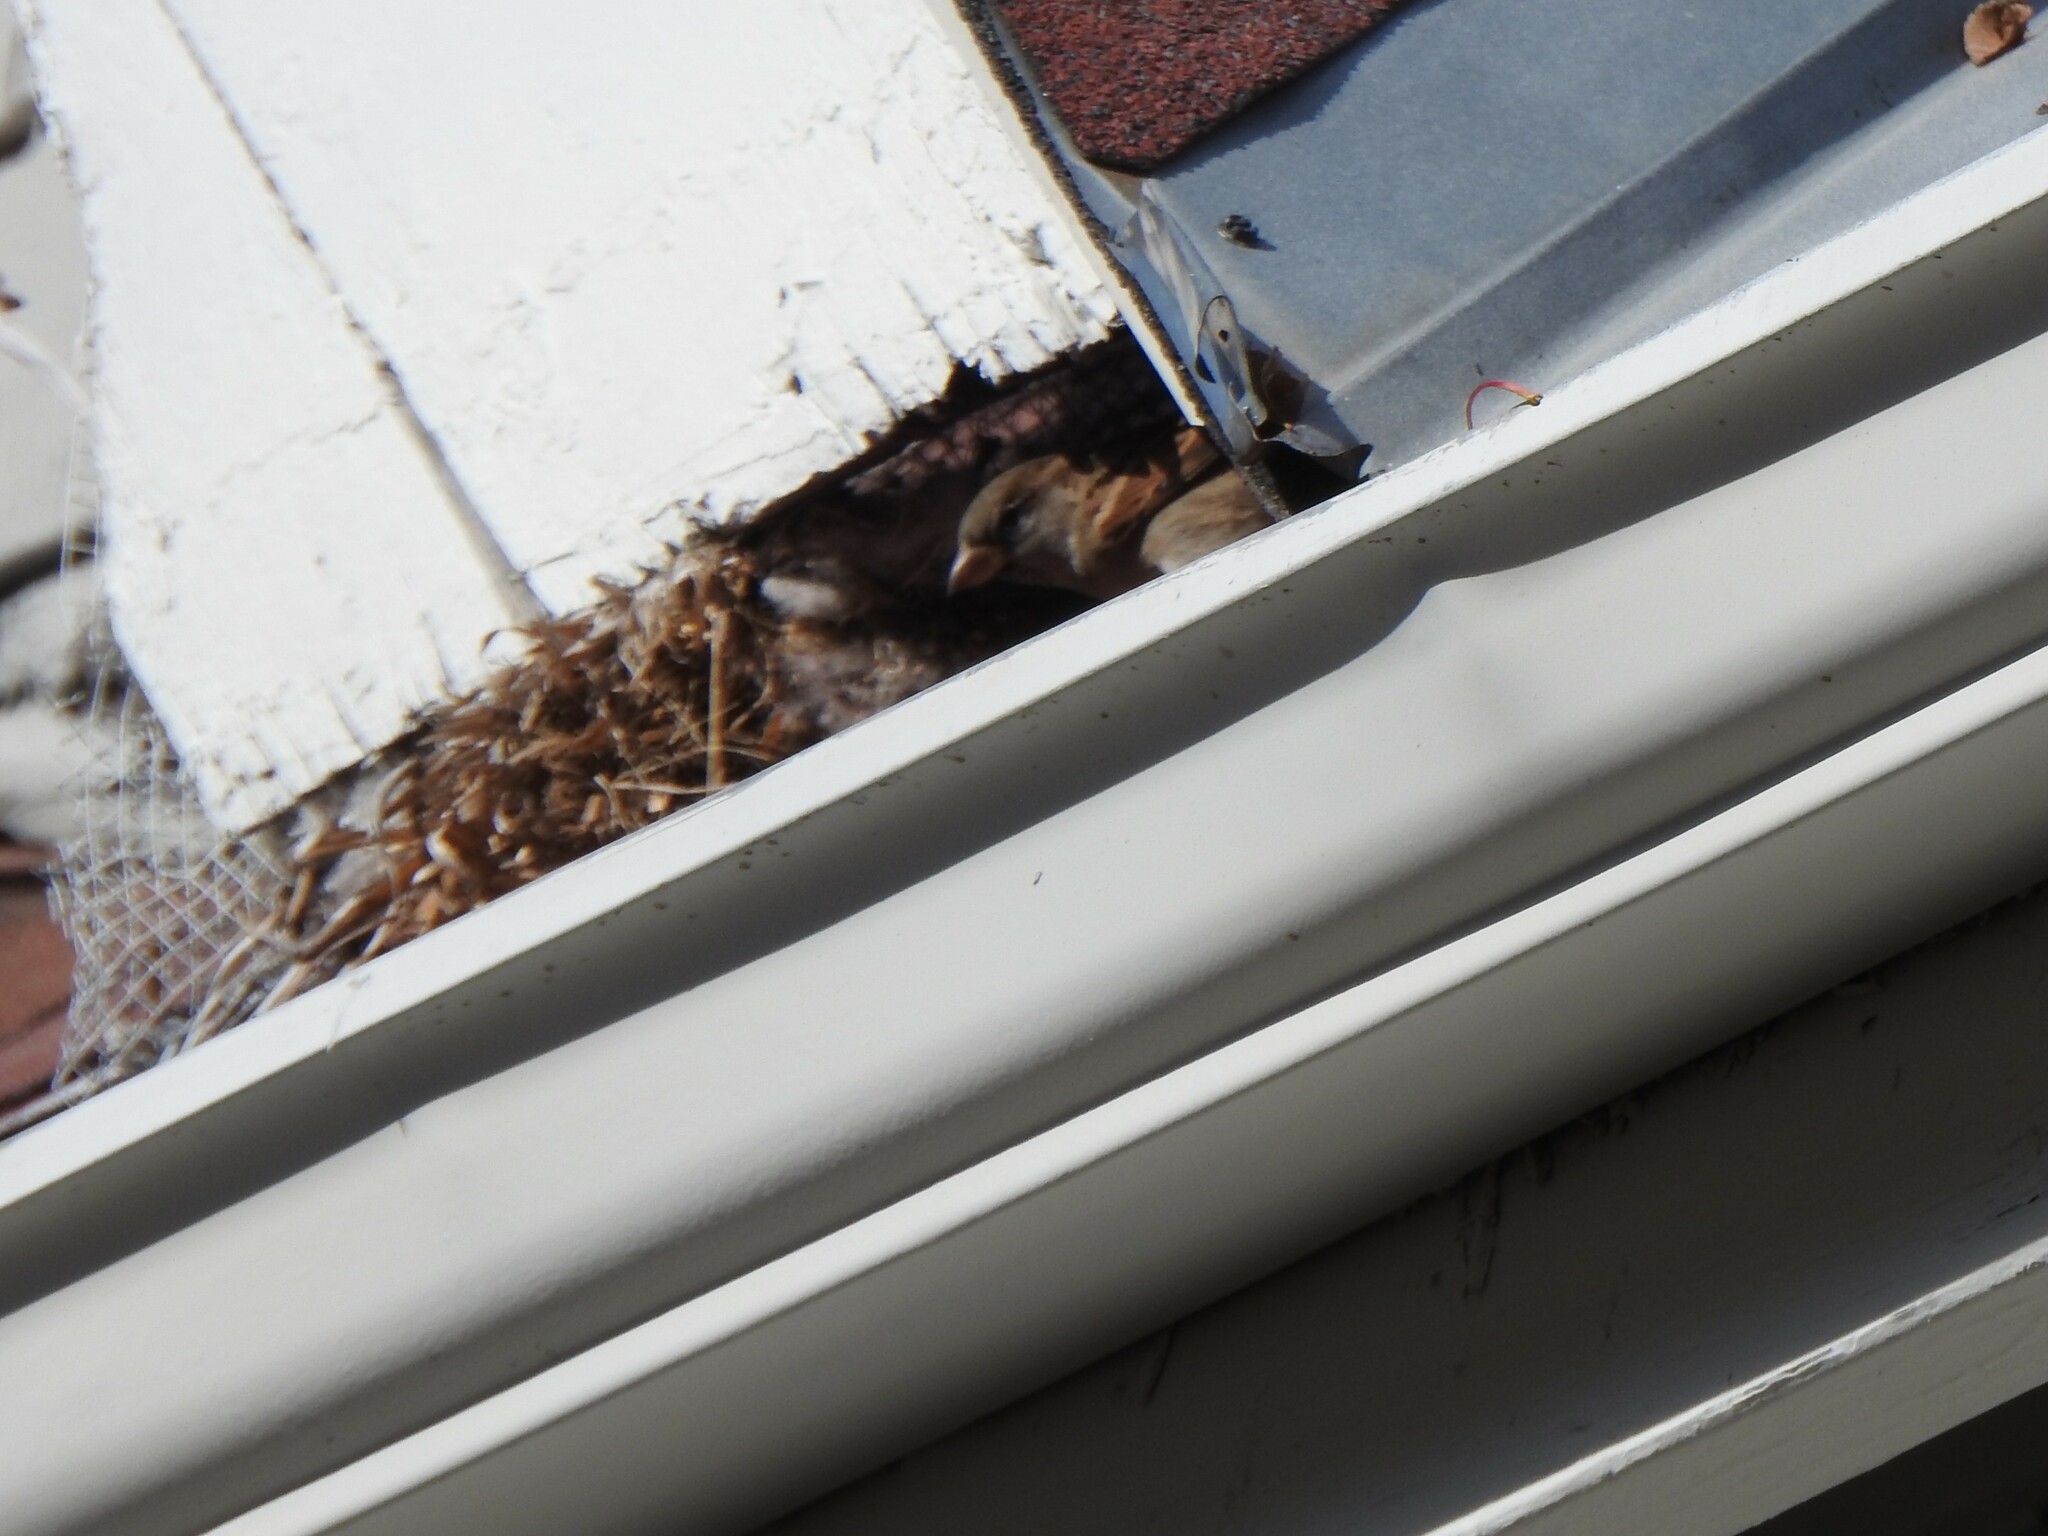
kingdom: Animalia
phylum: Chordata
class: Aves
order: Passeriformes
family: Passeridae
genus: Passer
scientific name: Passer domesticus
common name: House sparrow
